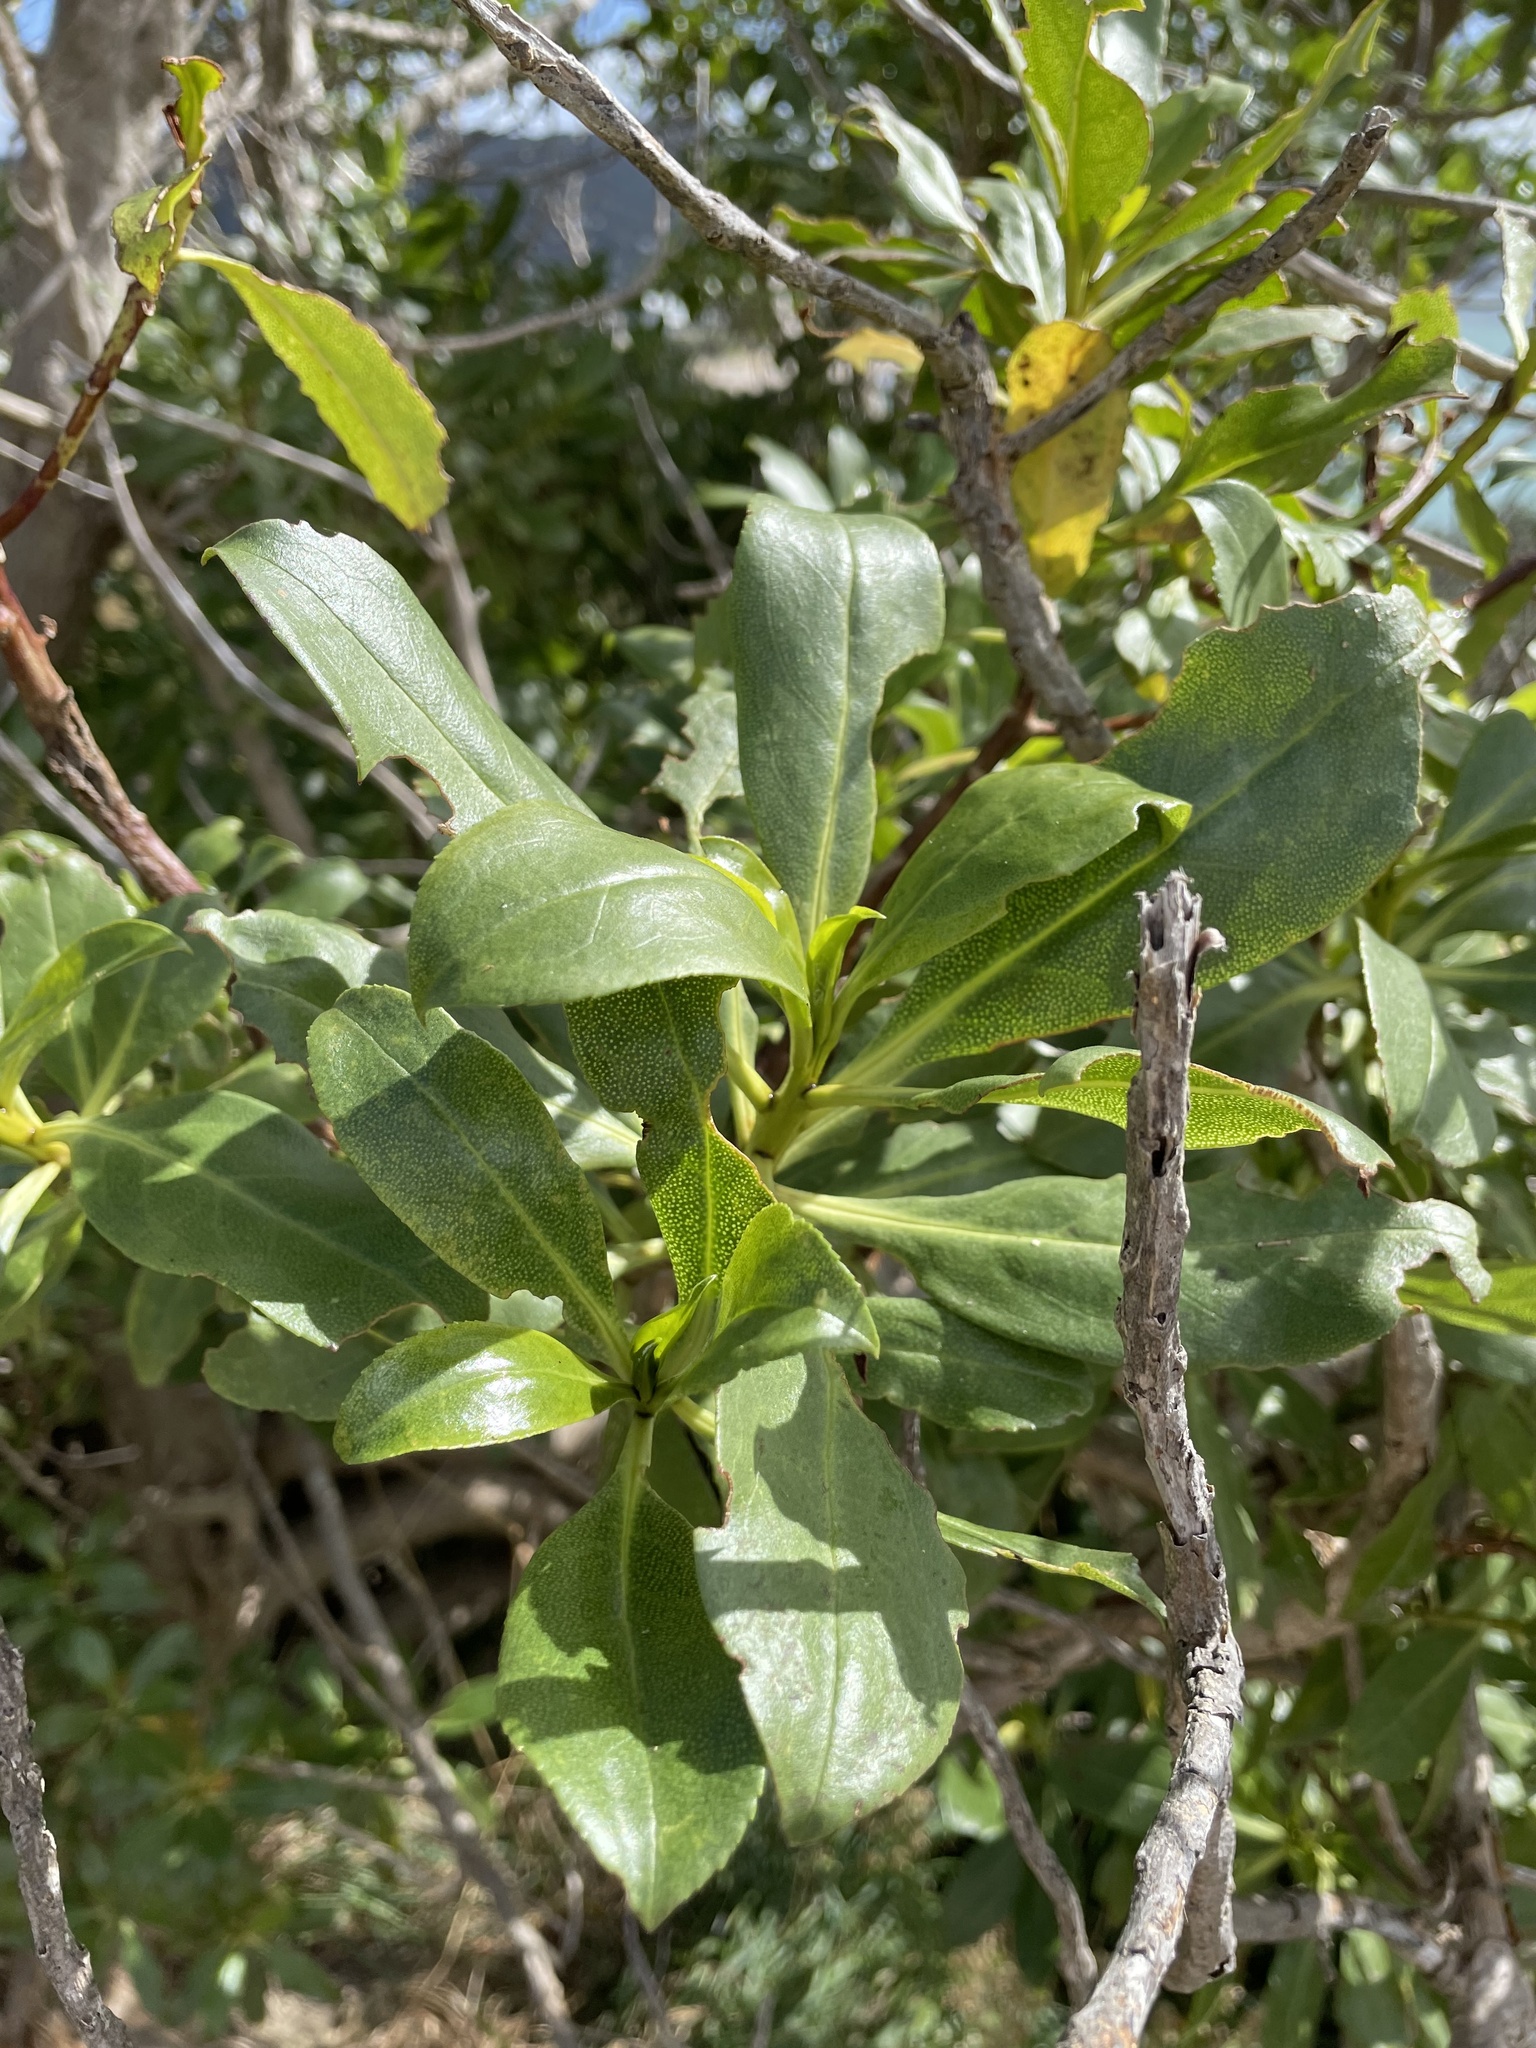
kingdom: Plantae
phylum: Tracheophyta
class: Magnoliopsida
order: Lamiales
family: Scrophulariaceae
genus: Myoporum
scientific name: Myoporum laetum
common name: Ngaio tree
